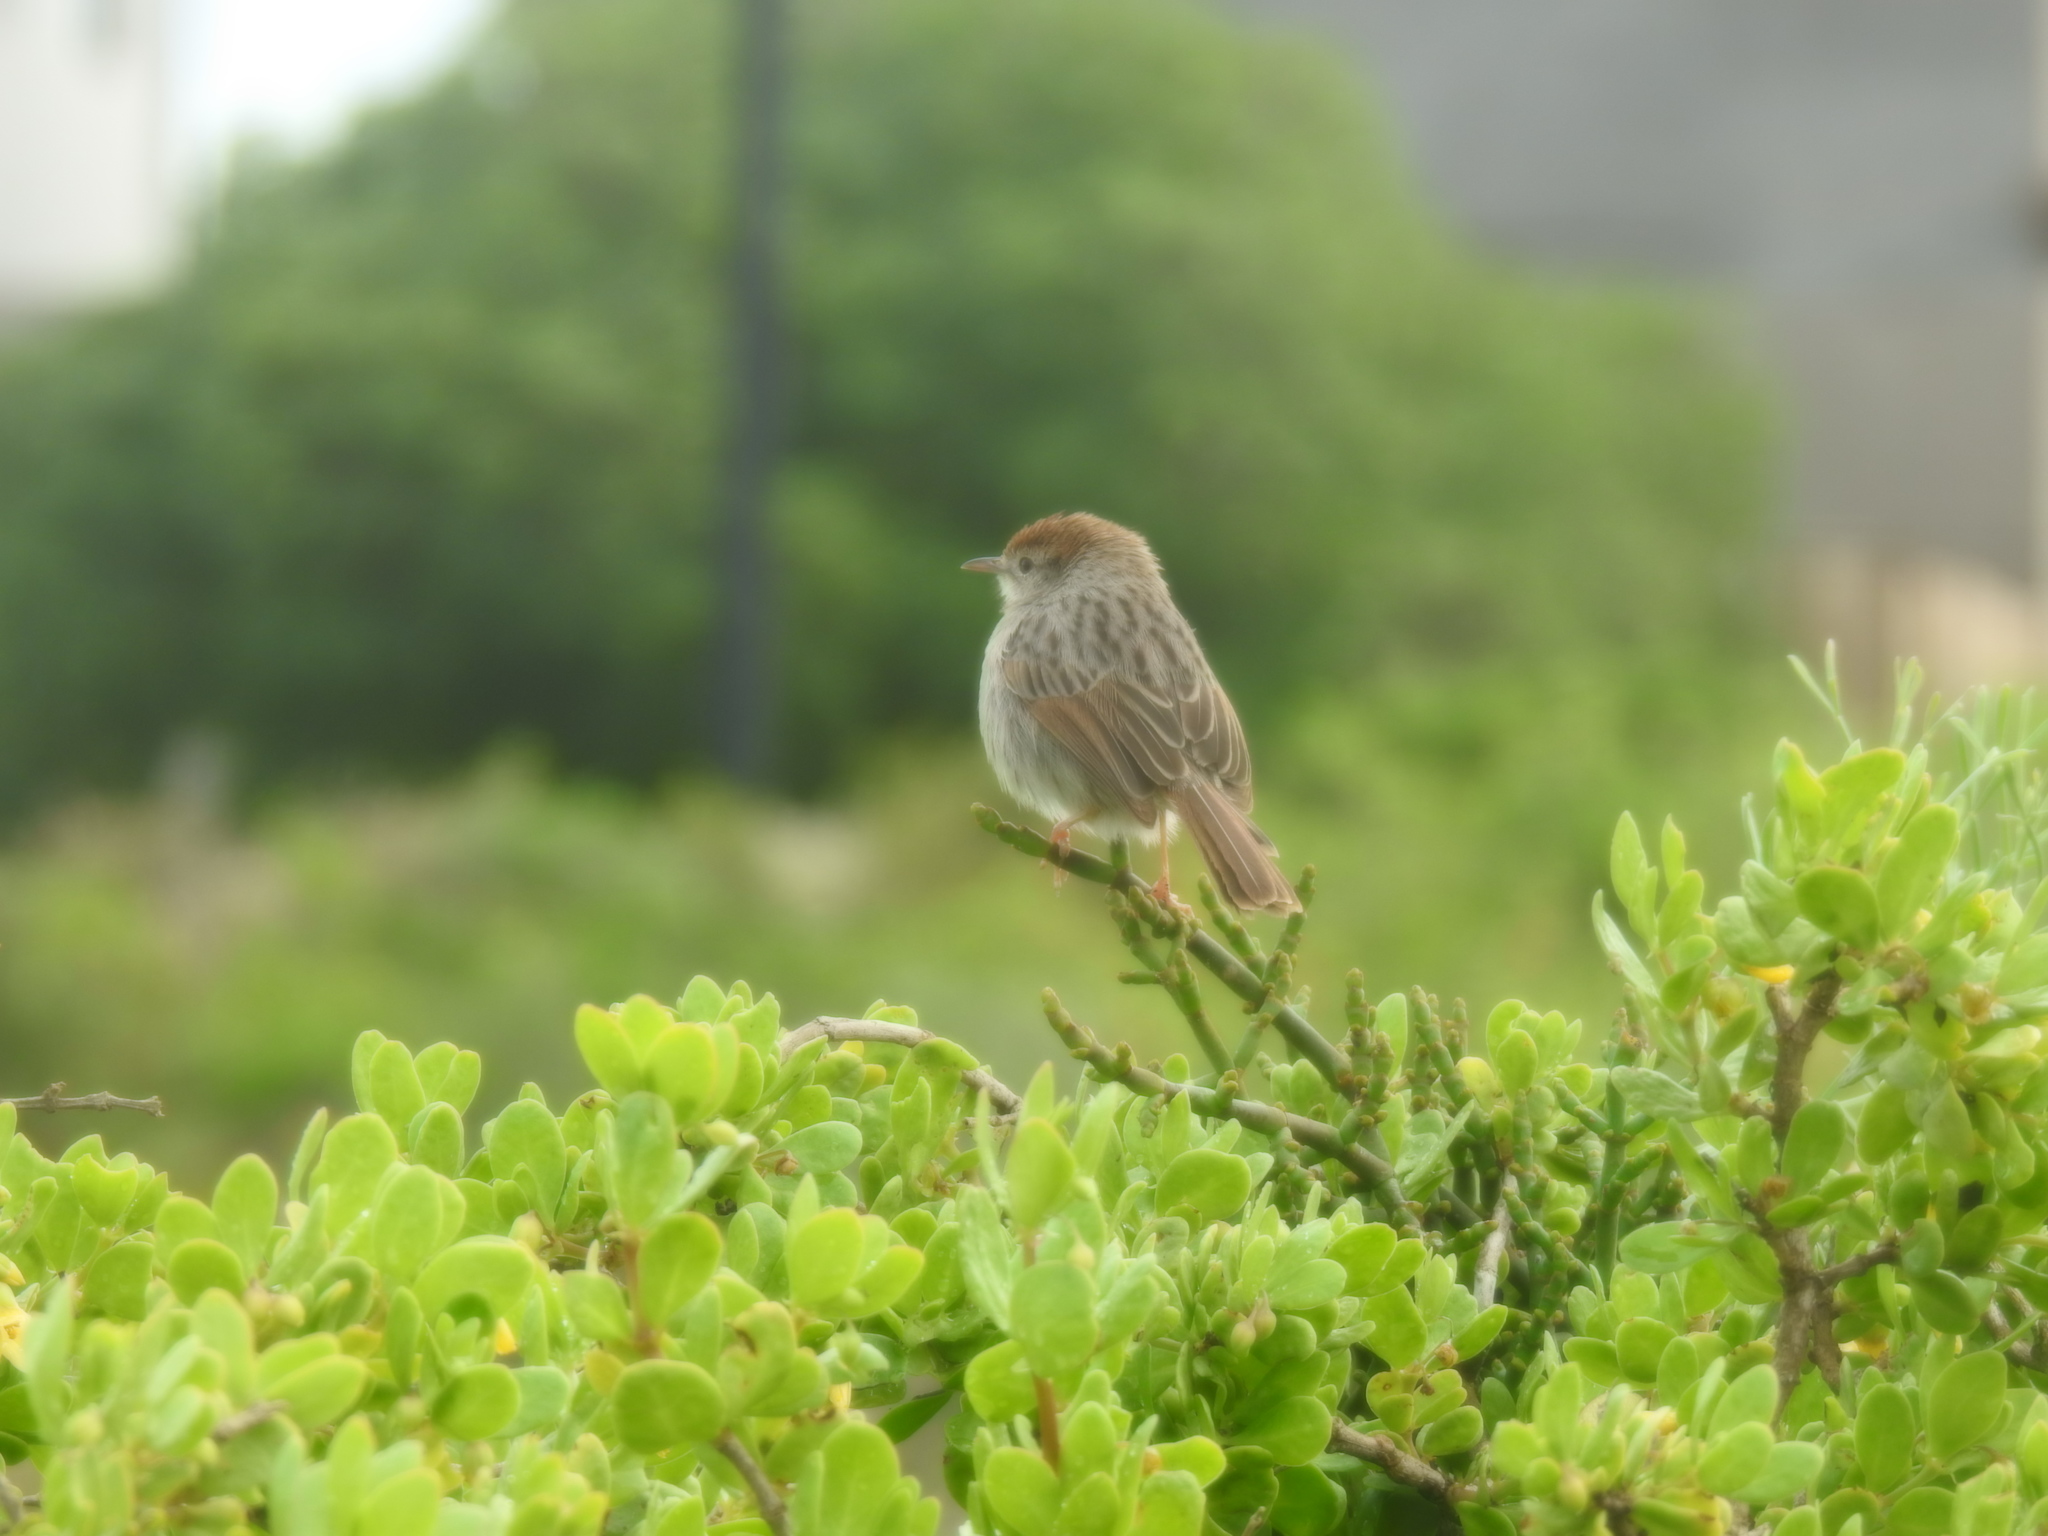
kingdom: Animalia
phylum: Chordata
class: Aves
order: Passeriformes
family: Cisticolidae
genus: Cisticola
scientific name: Cisticola subruficapilla
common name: Grey-backed cisticola
